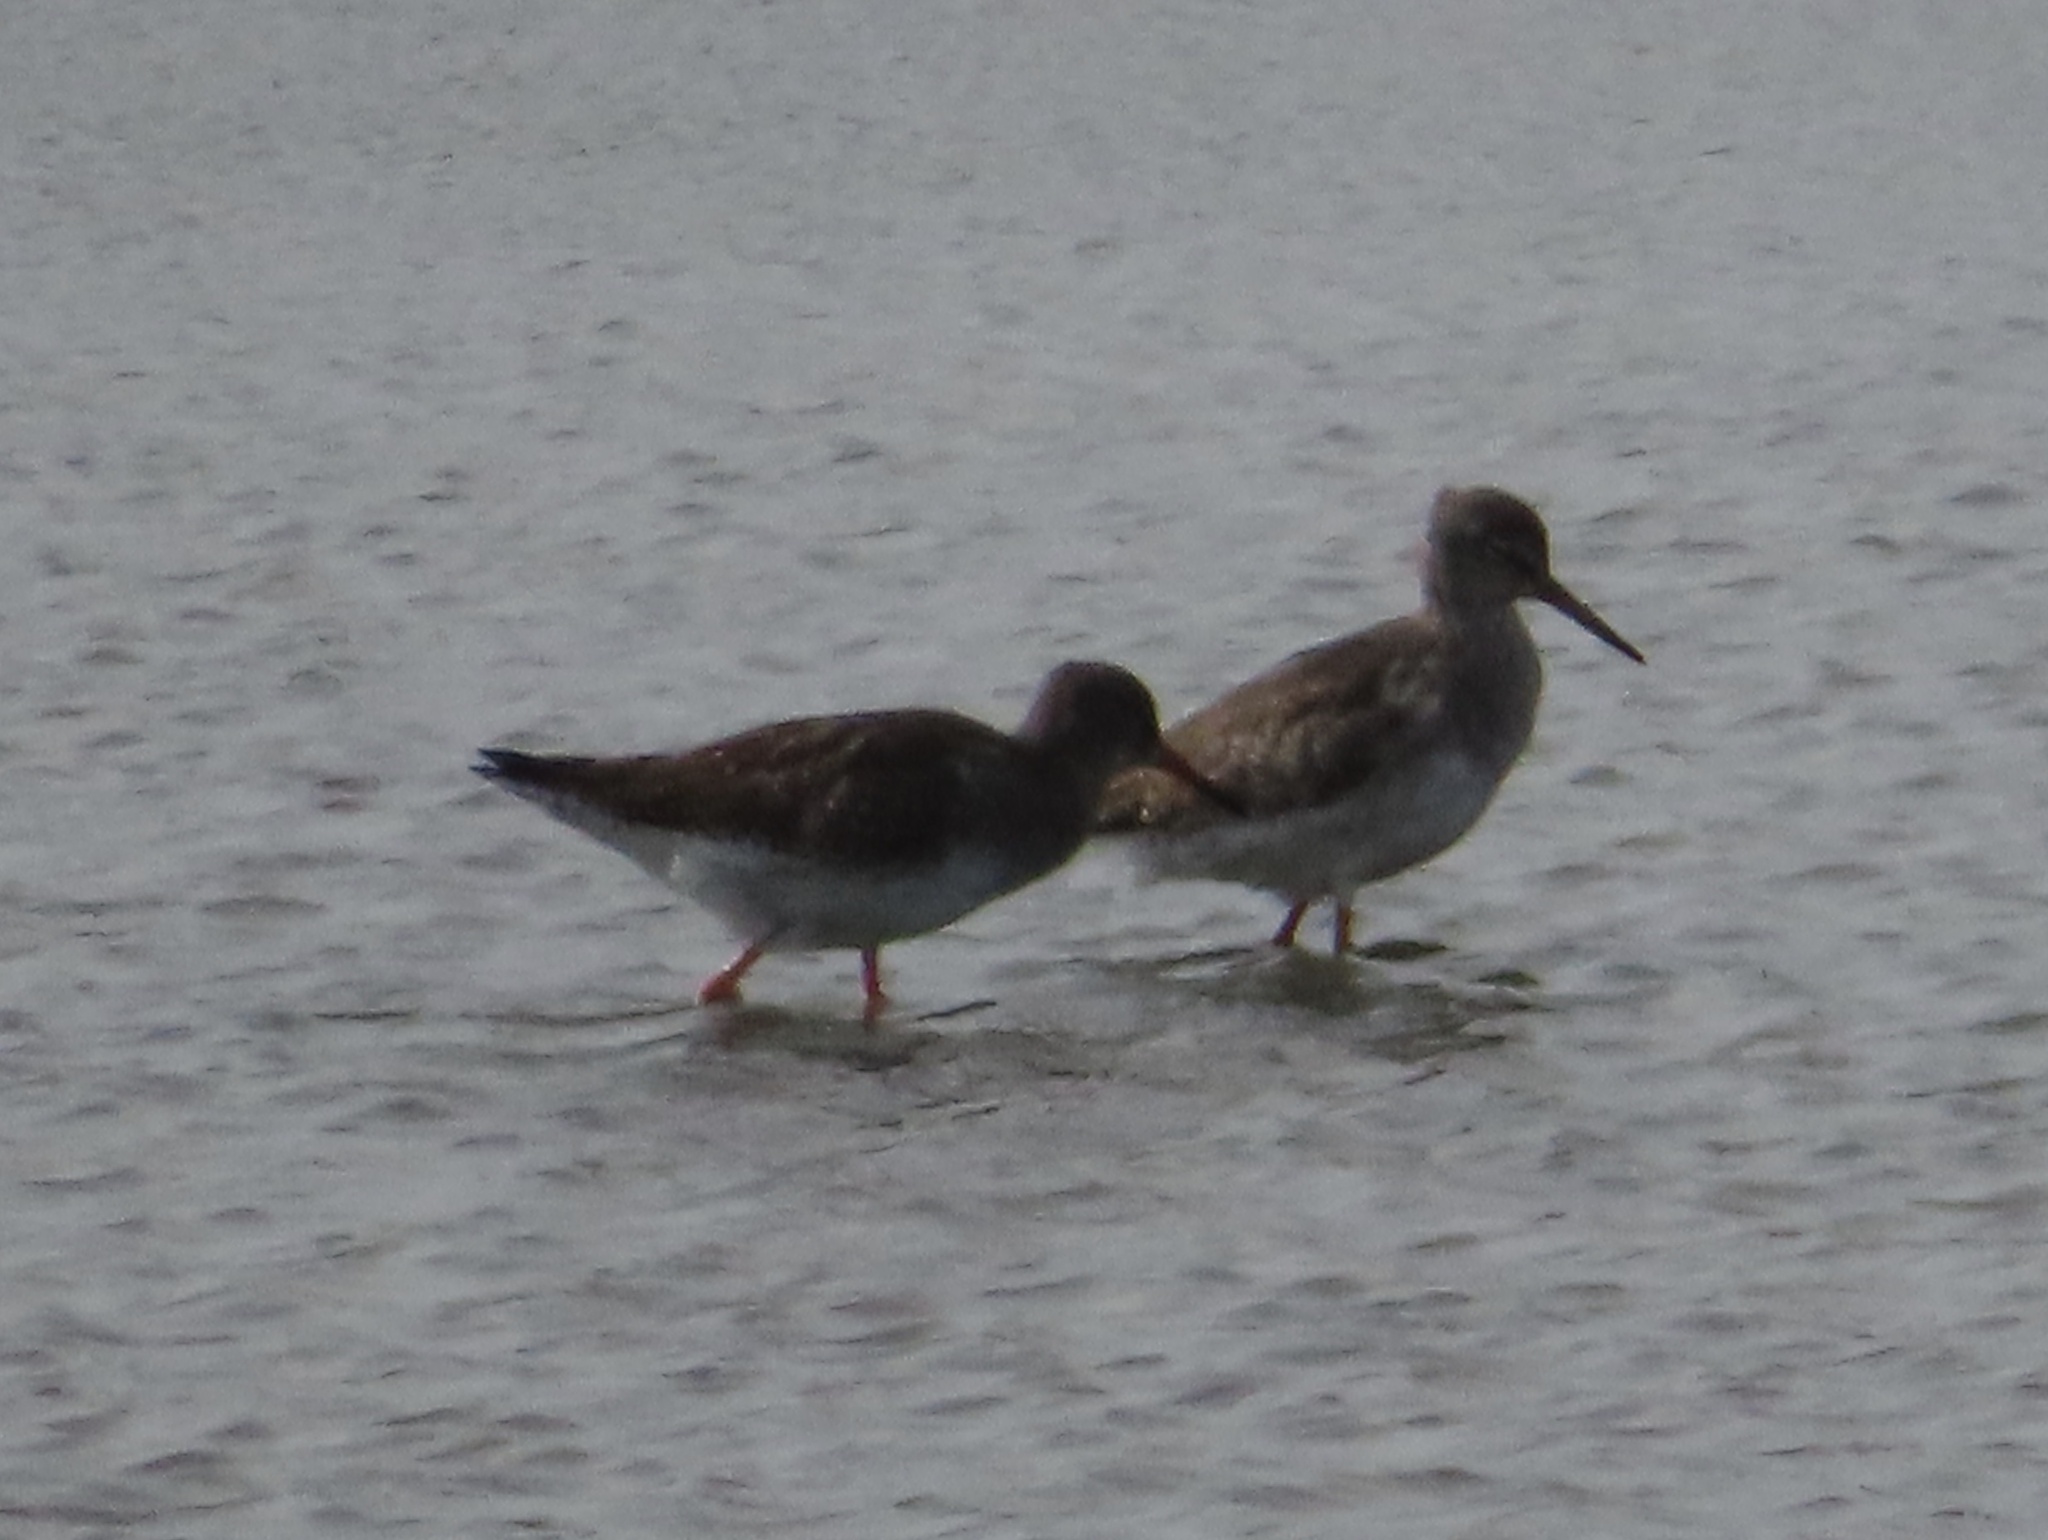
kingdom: Animalia
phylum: Chordata
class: Aves
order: Charadriiformes
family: Scolopacidae
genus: Tringa
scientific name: Tringa totanus
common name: Common redshank
